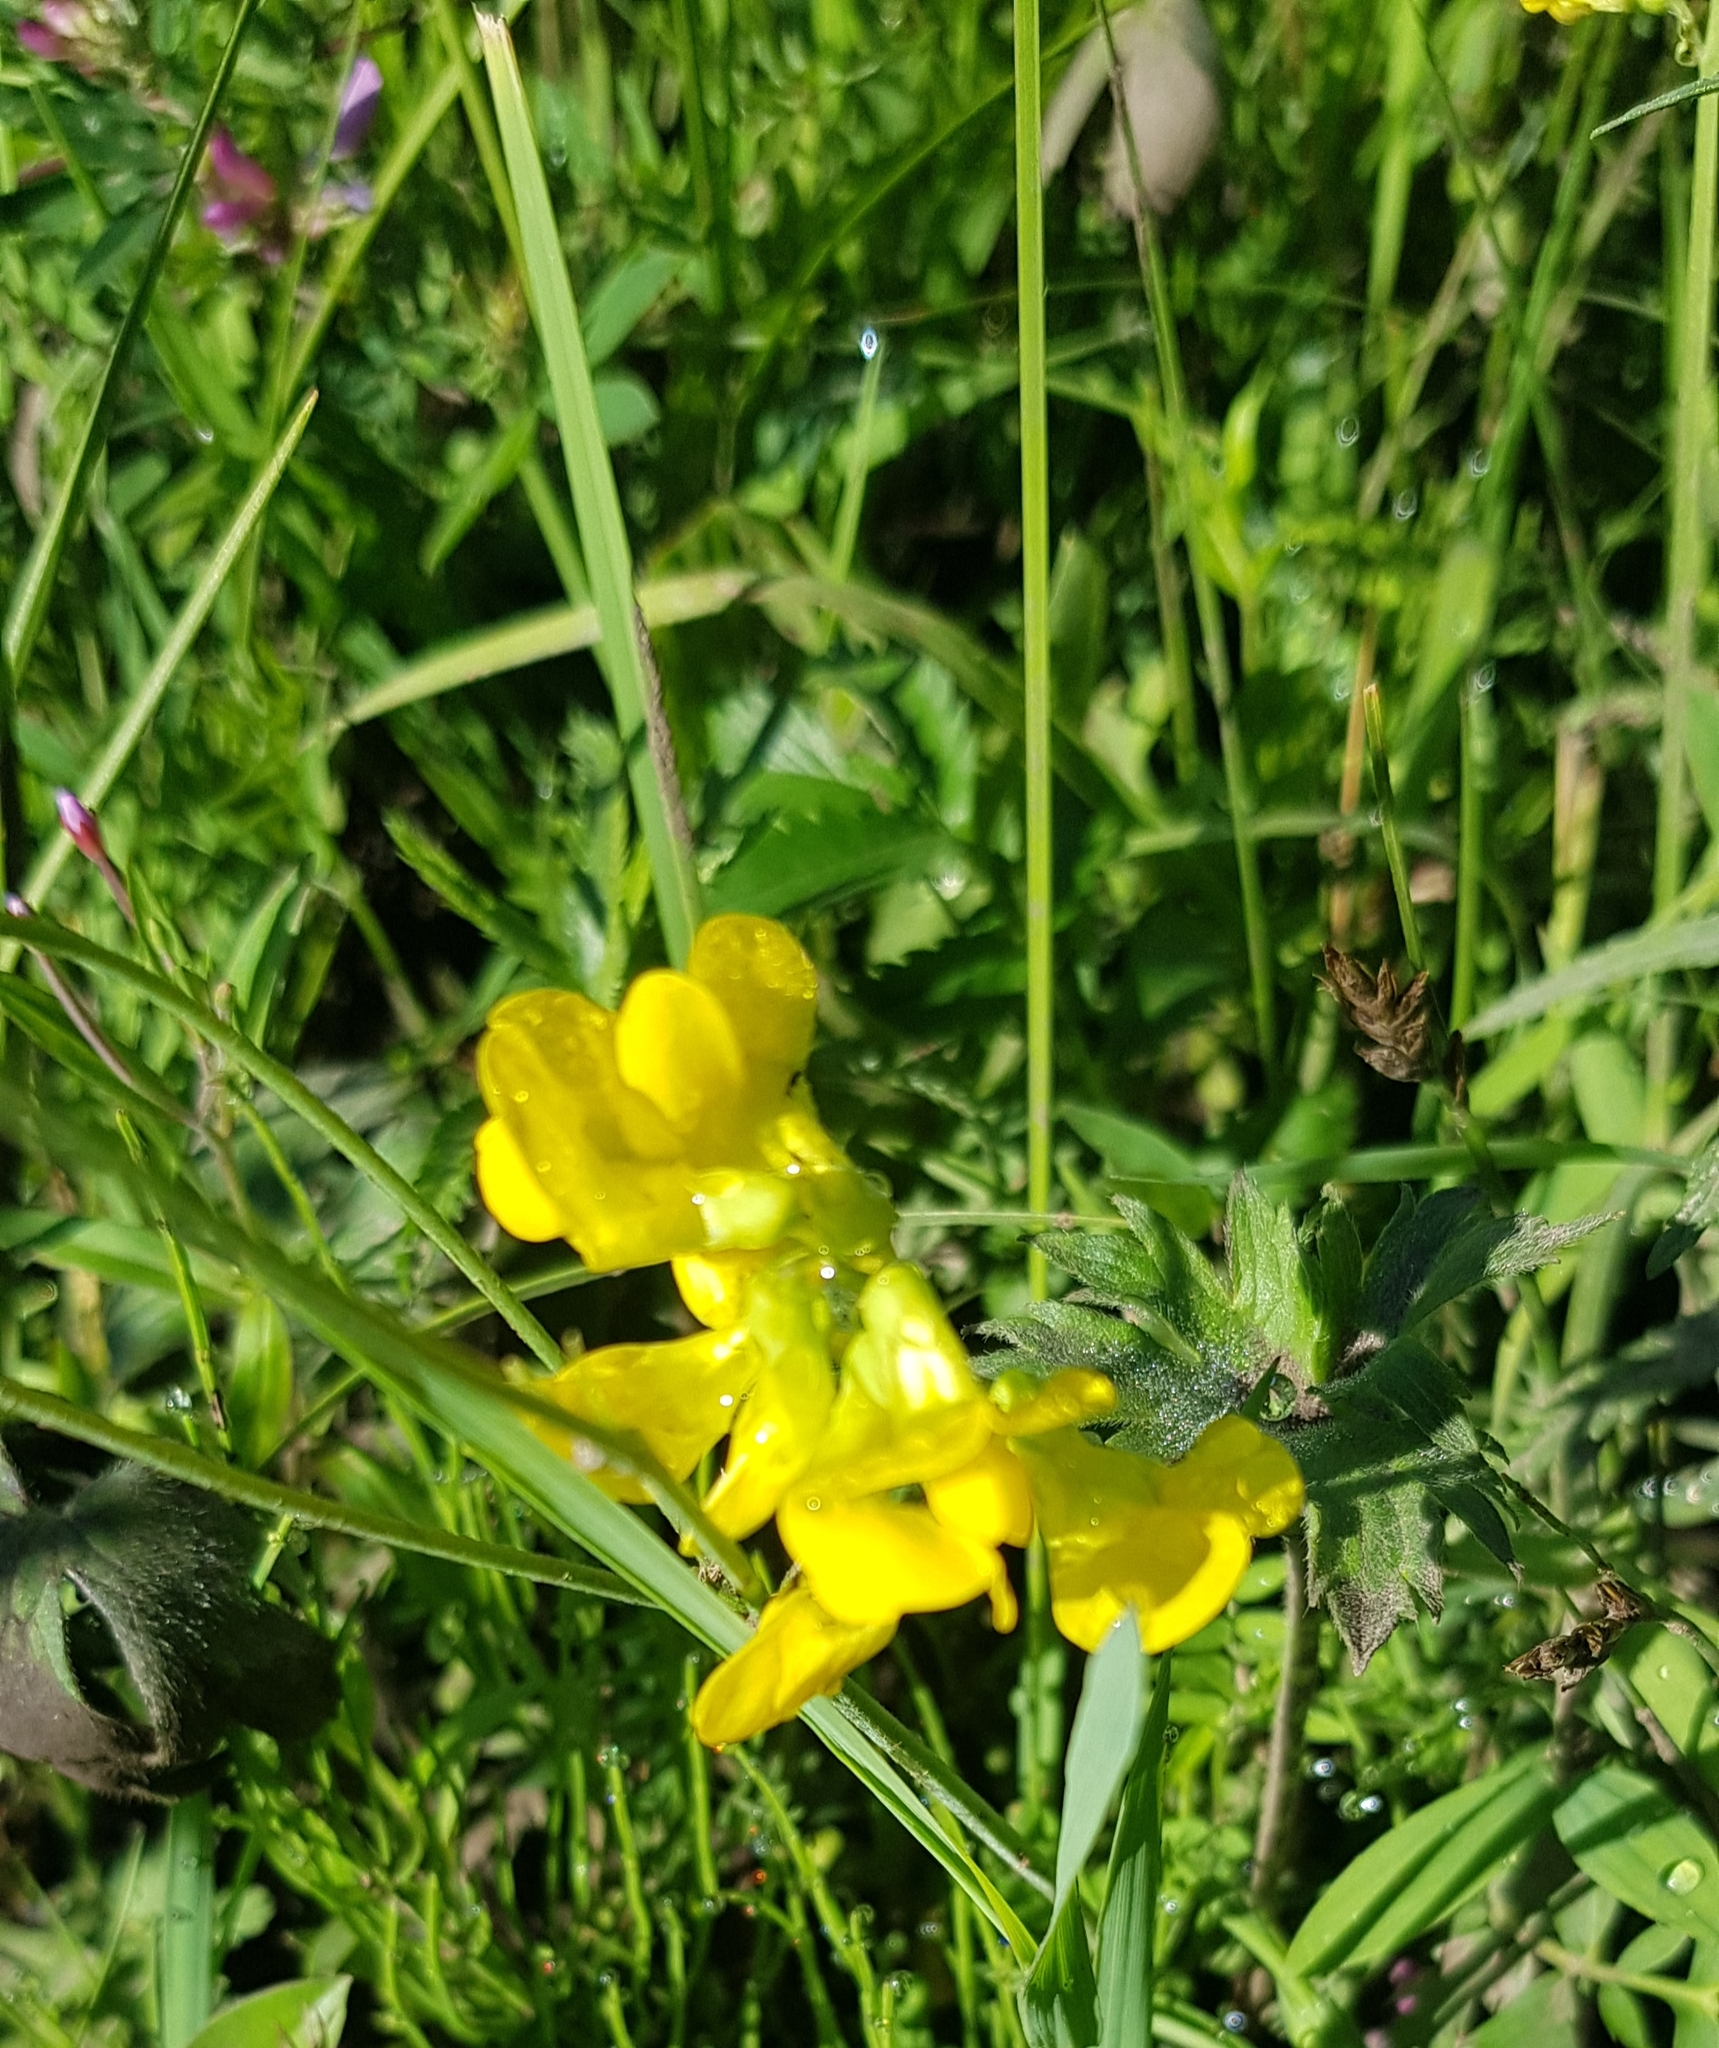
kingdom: Plantae
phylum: Tracheophyta
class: Magnoliopsida
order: Fabales
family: Fabaceae
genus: Lathyrus
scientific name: Lathyrus pratensis
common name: Meadow vetchling
